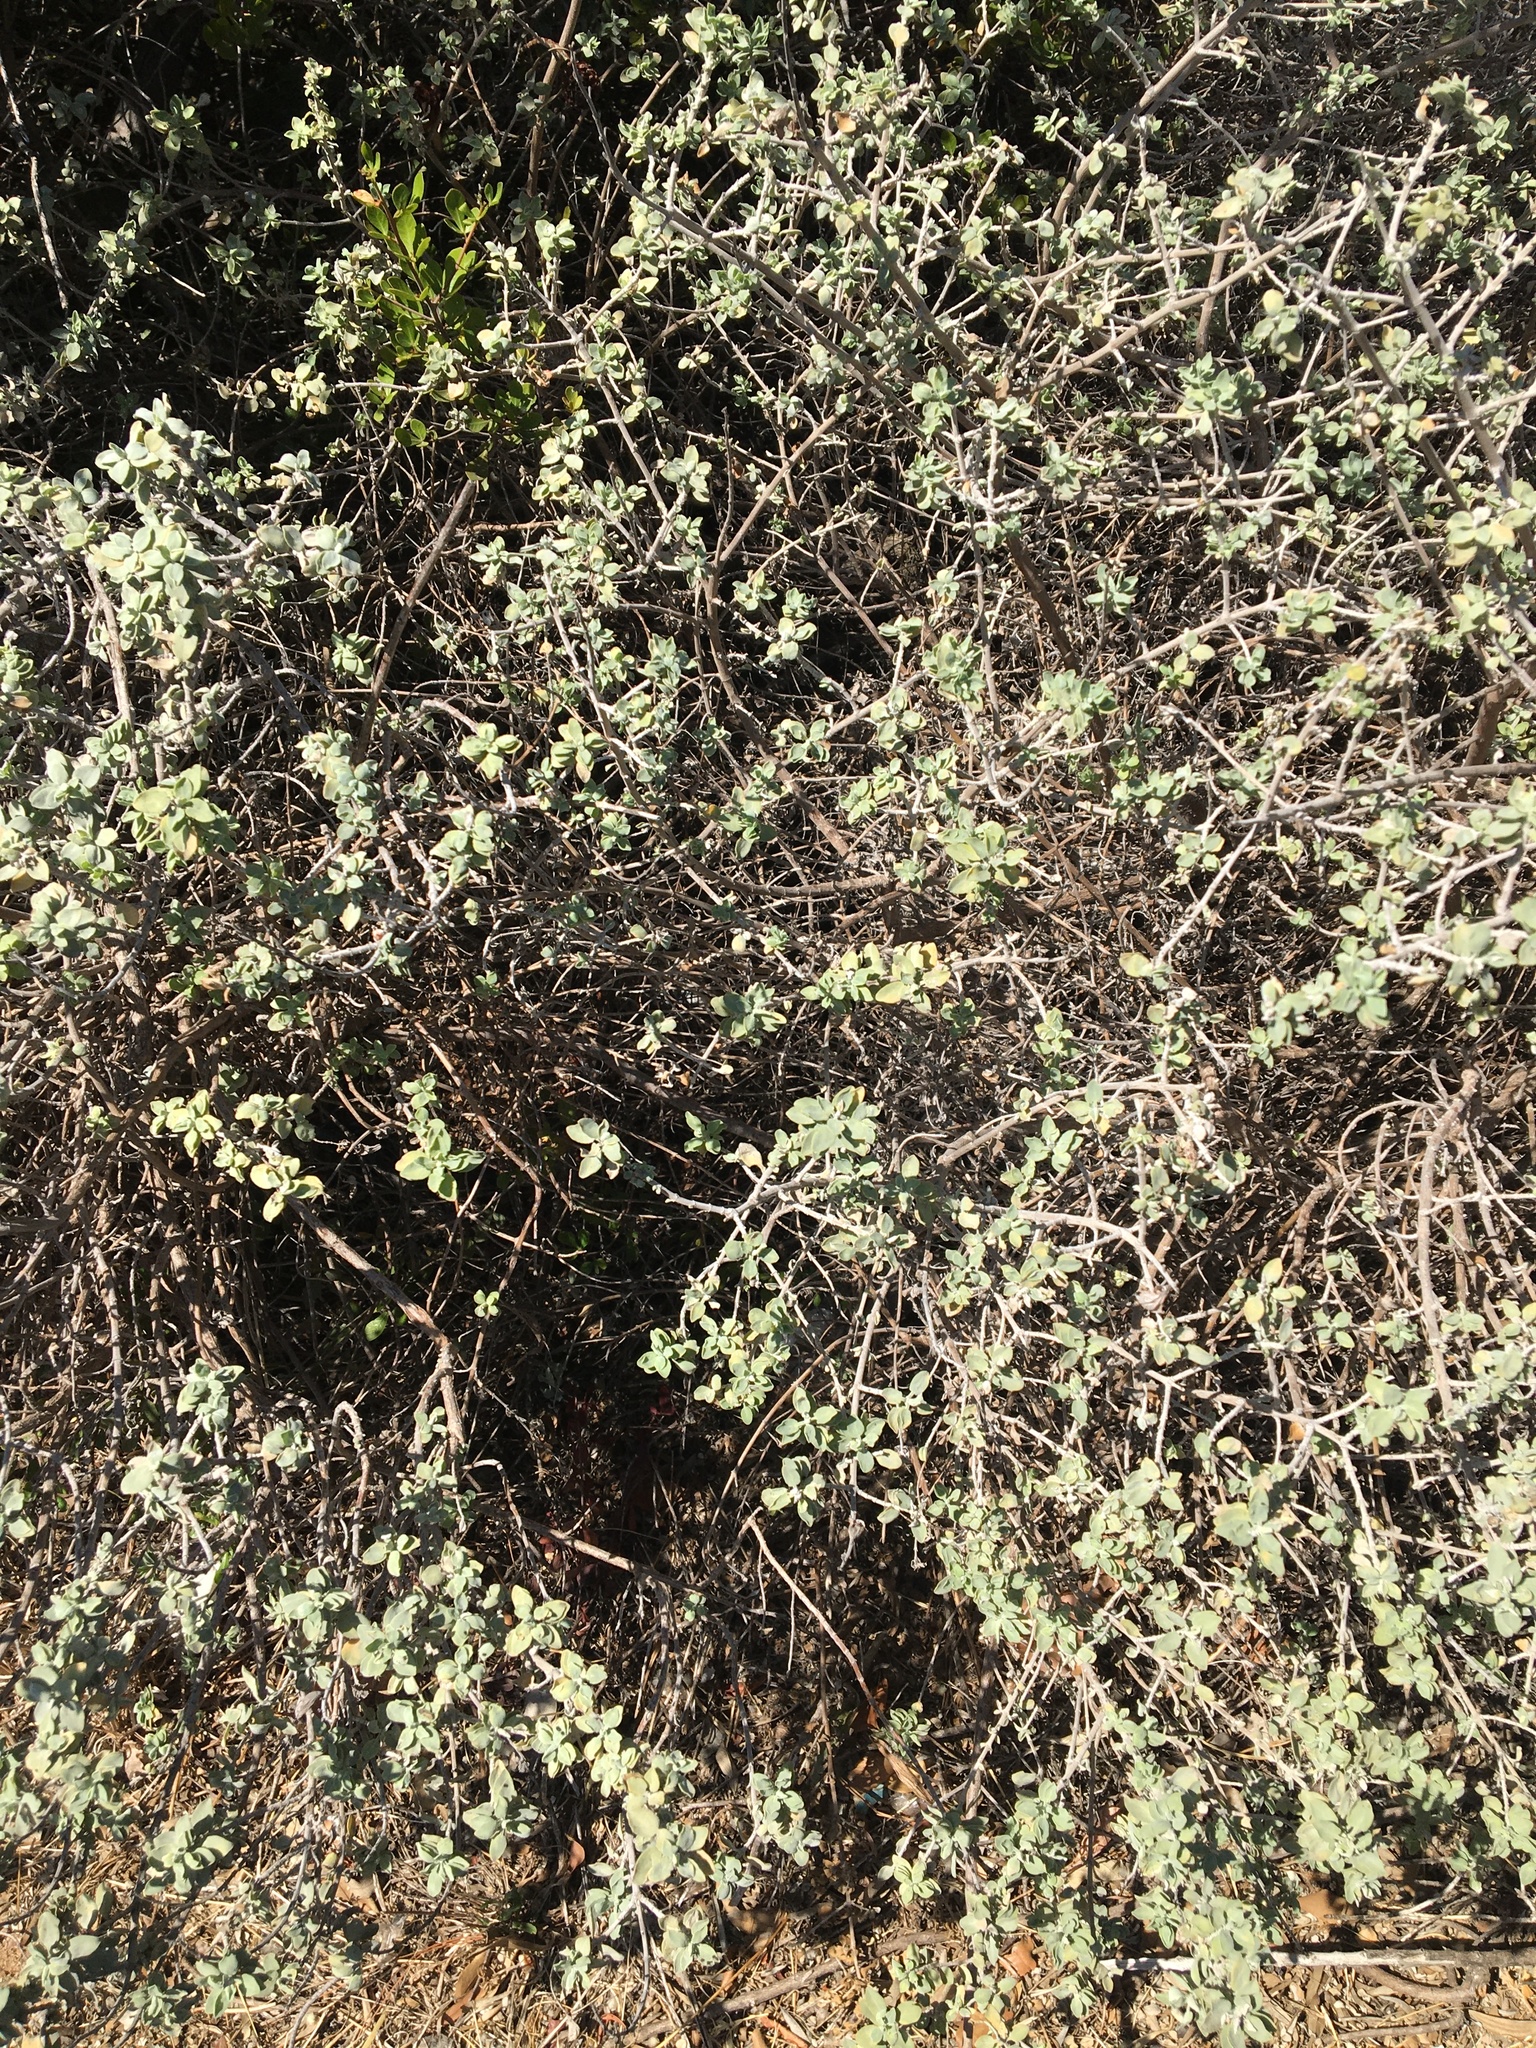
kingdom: Plantae
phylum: Tracheophyta
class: Magnoliopsida
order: Lamiales
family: Lamiaceae
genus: Salvia
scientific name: Salvia aurea
